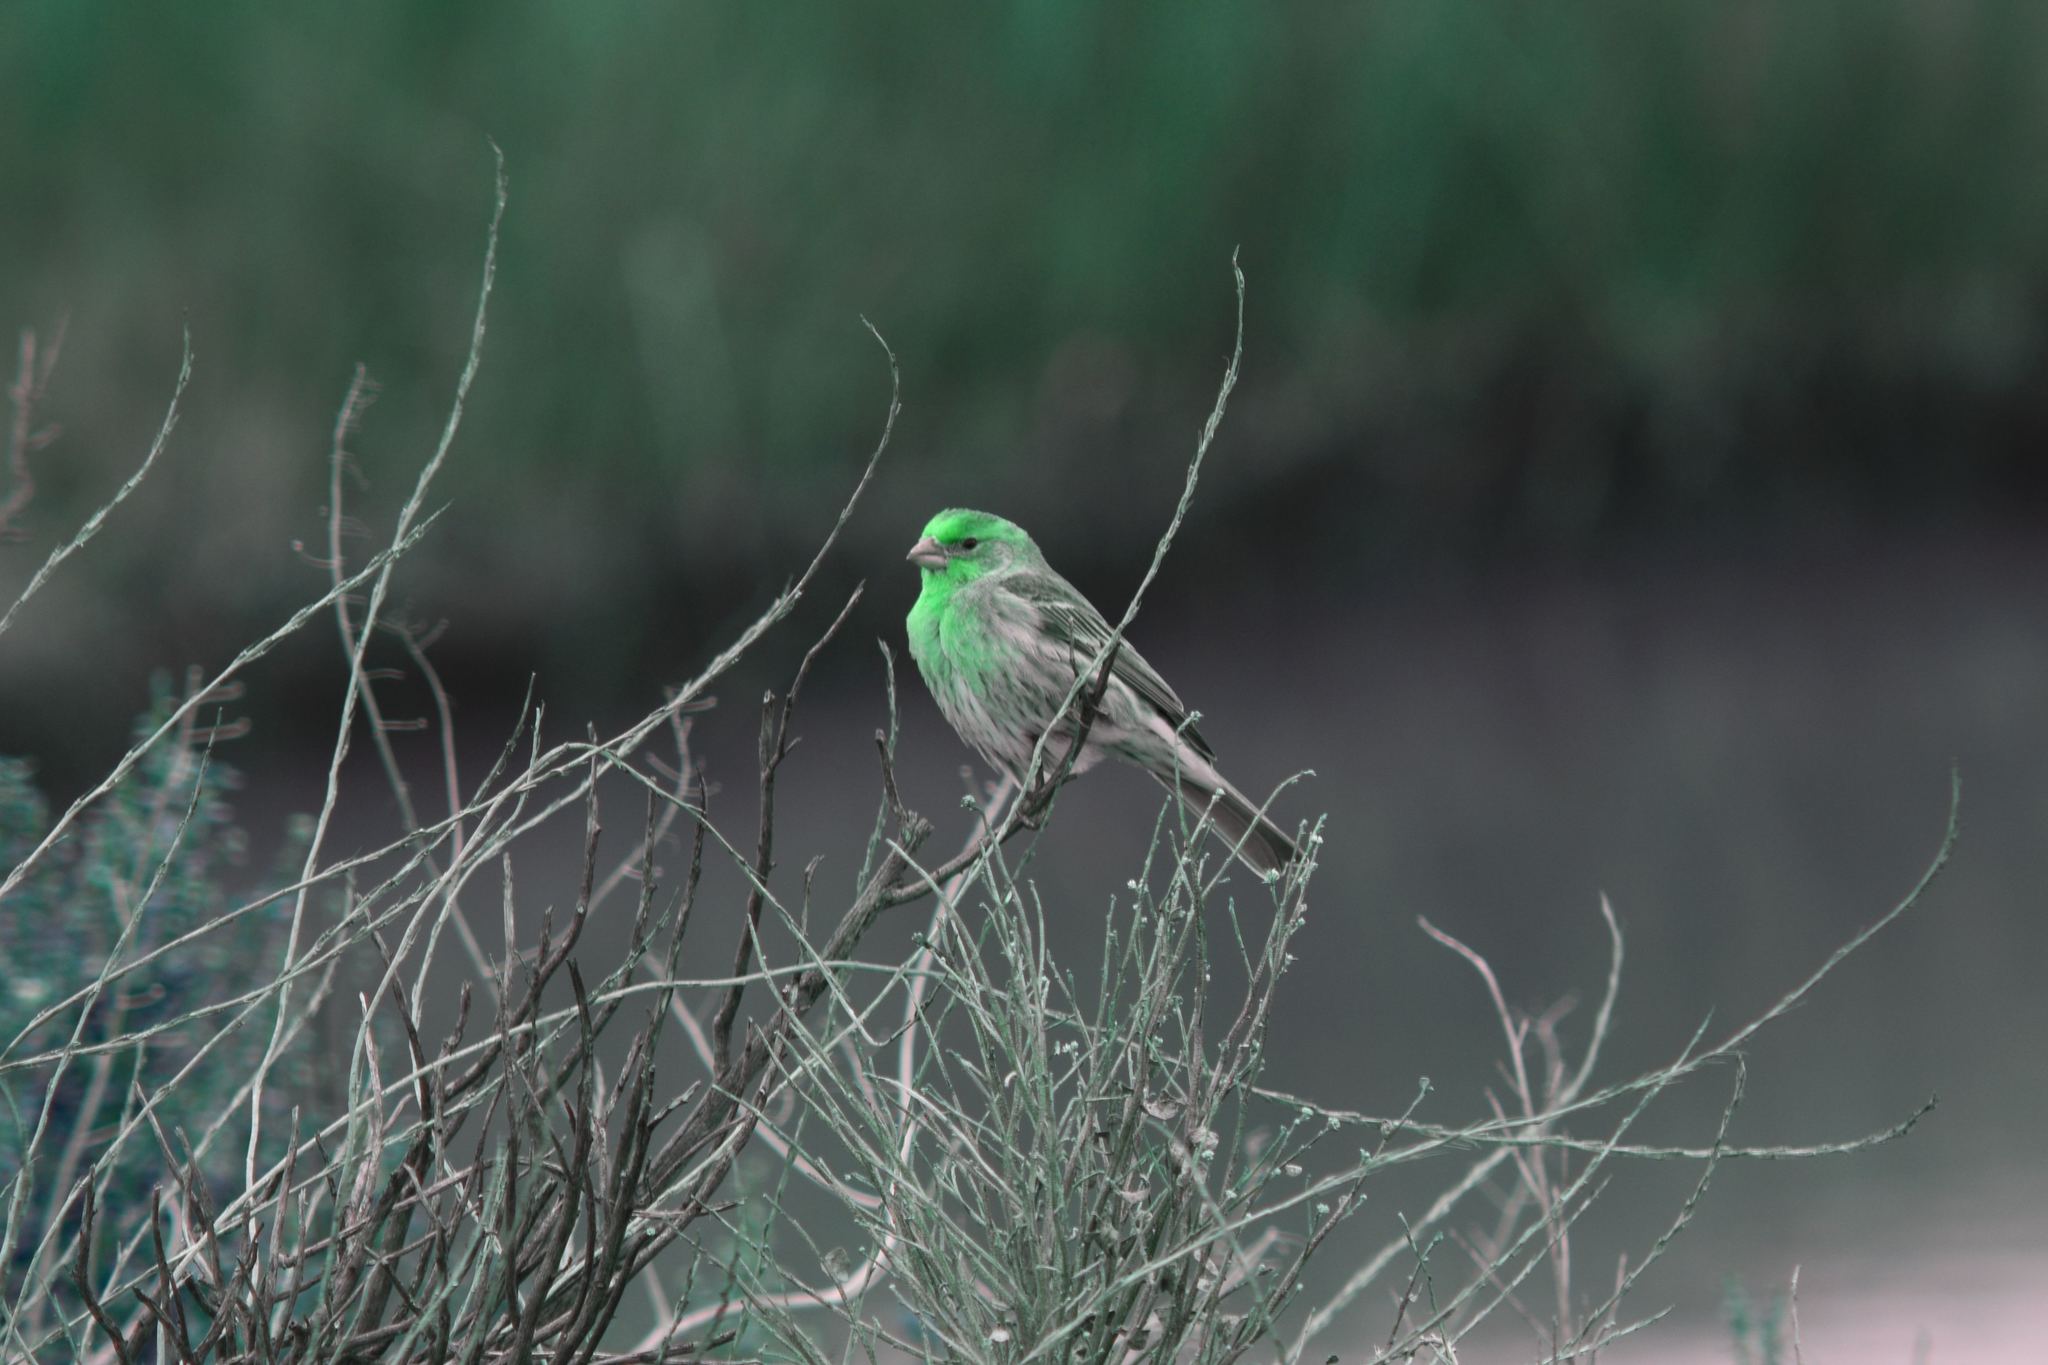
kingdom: Animalia
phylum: Chordata
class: Aves
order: Passeriformes
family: Fringillidae
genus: Haemorhous
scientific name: Haemorhous mexicanus
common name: House finch
